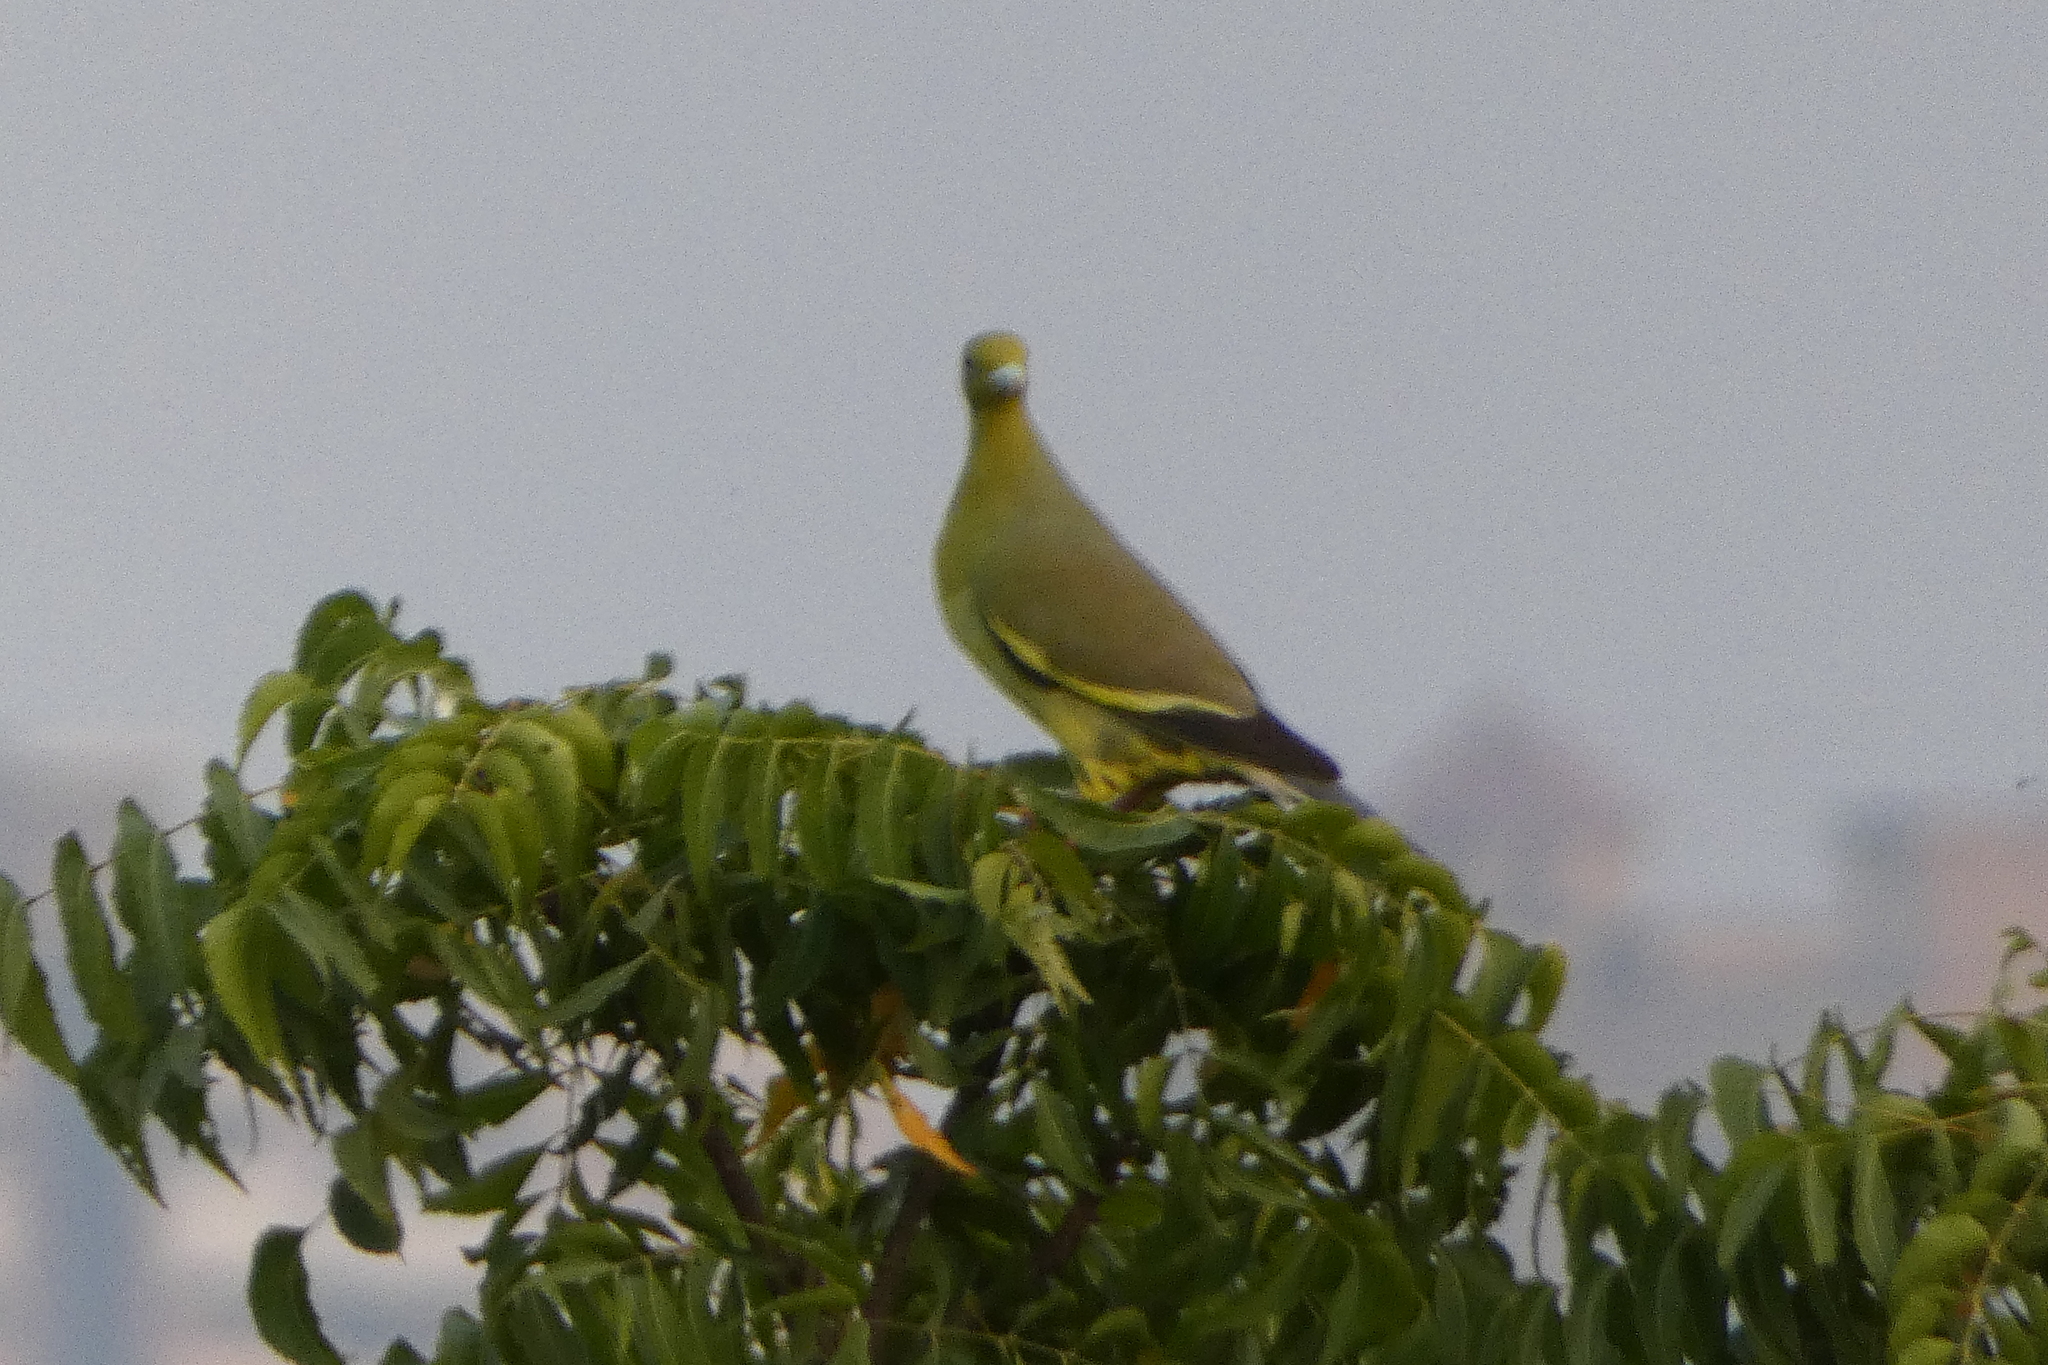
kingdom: Animalia
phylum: Chordata
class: Aves
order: Columbiformes
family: Columbidae
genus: Treron
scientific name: Treron bicinctus
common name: Orange-breasted green pigeon
